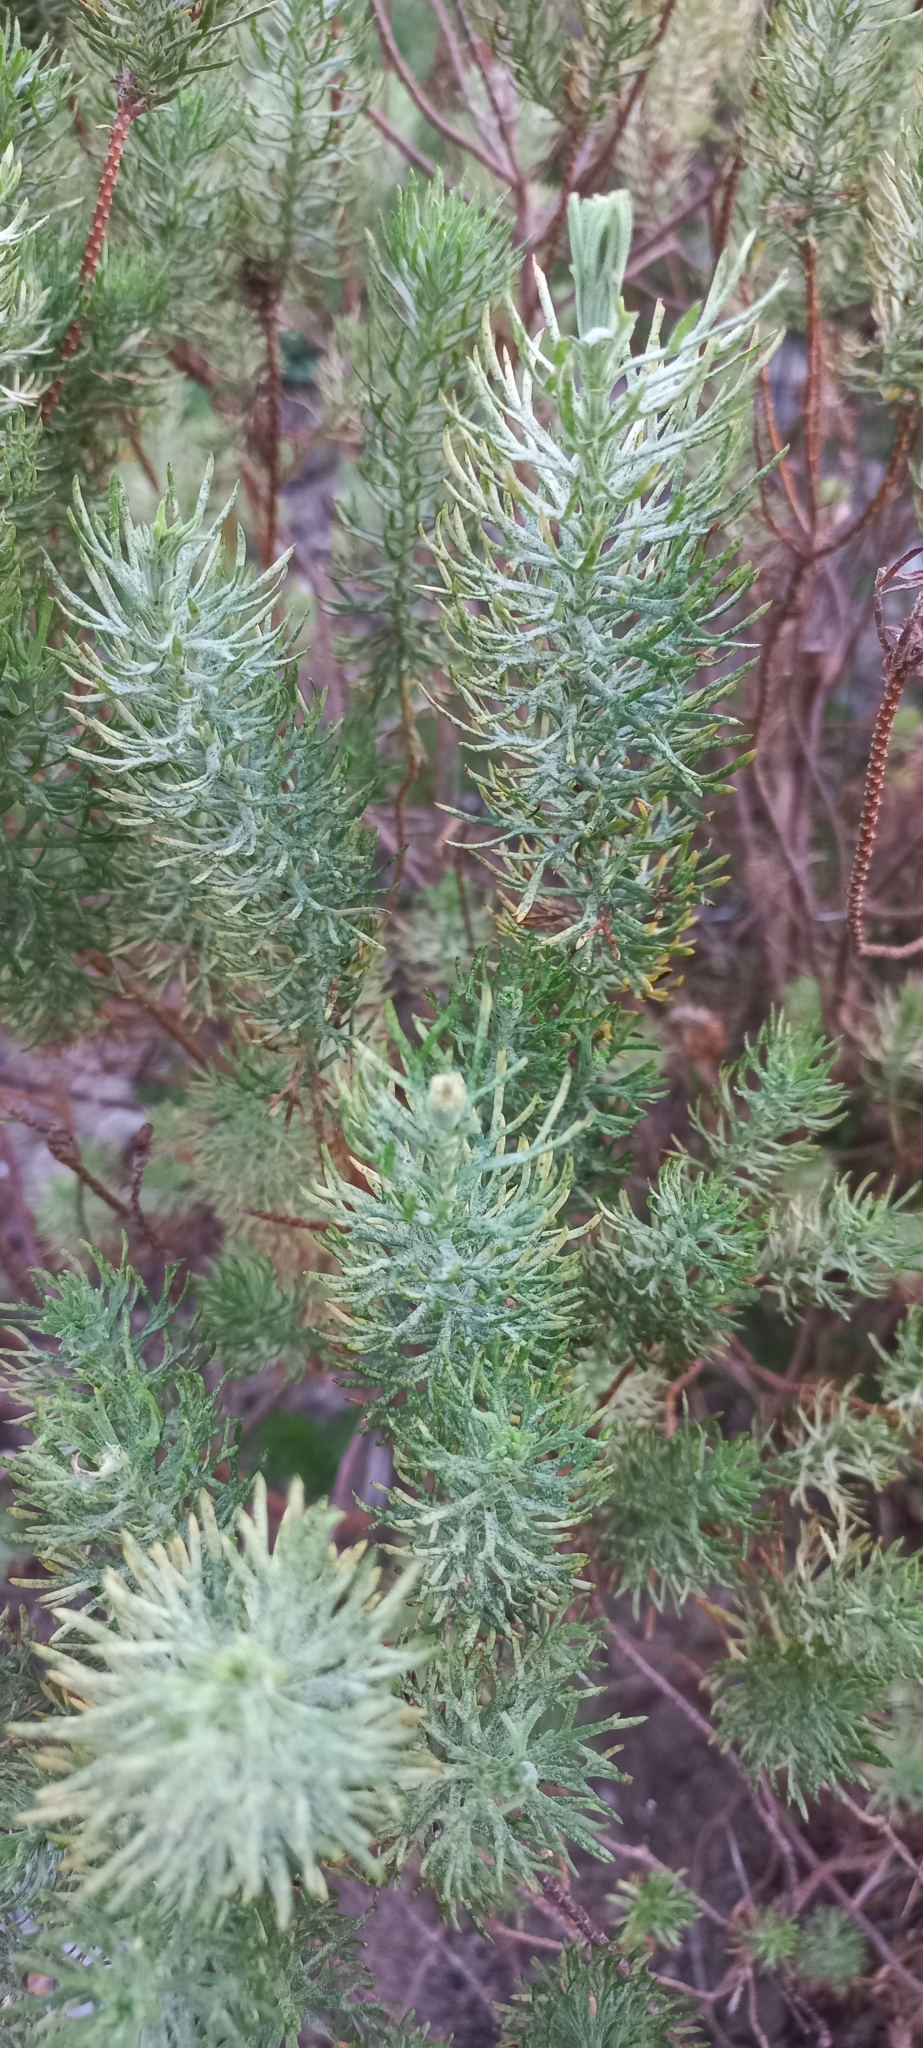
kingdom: Plantae
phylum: Tracheophyta
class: Magnoliopsida
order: Asterales
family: Asteraceae
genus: Athanasia
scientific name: Athanasia crithmifolia
